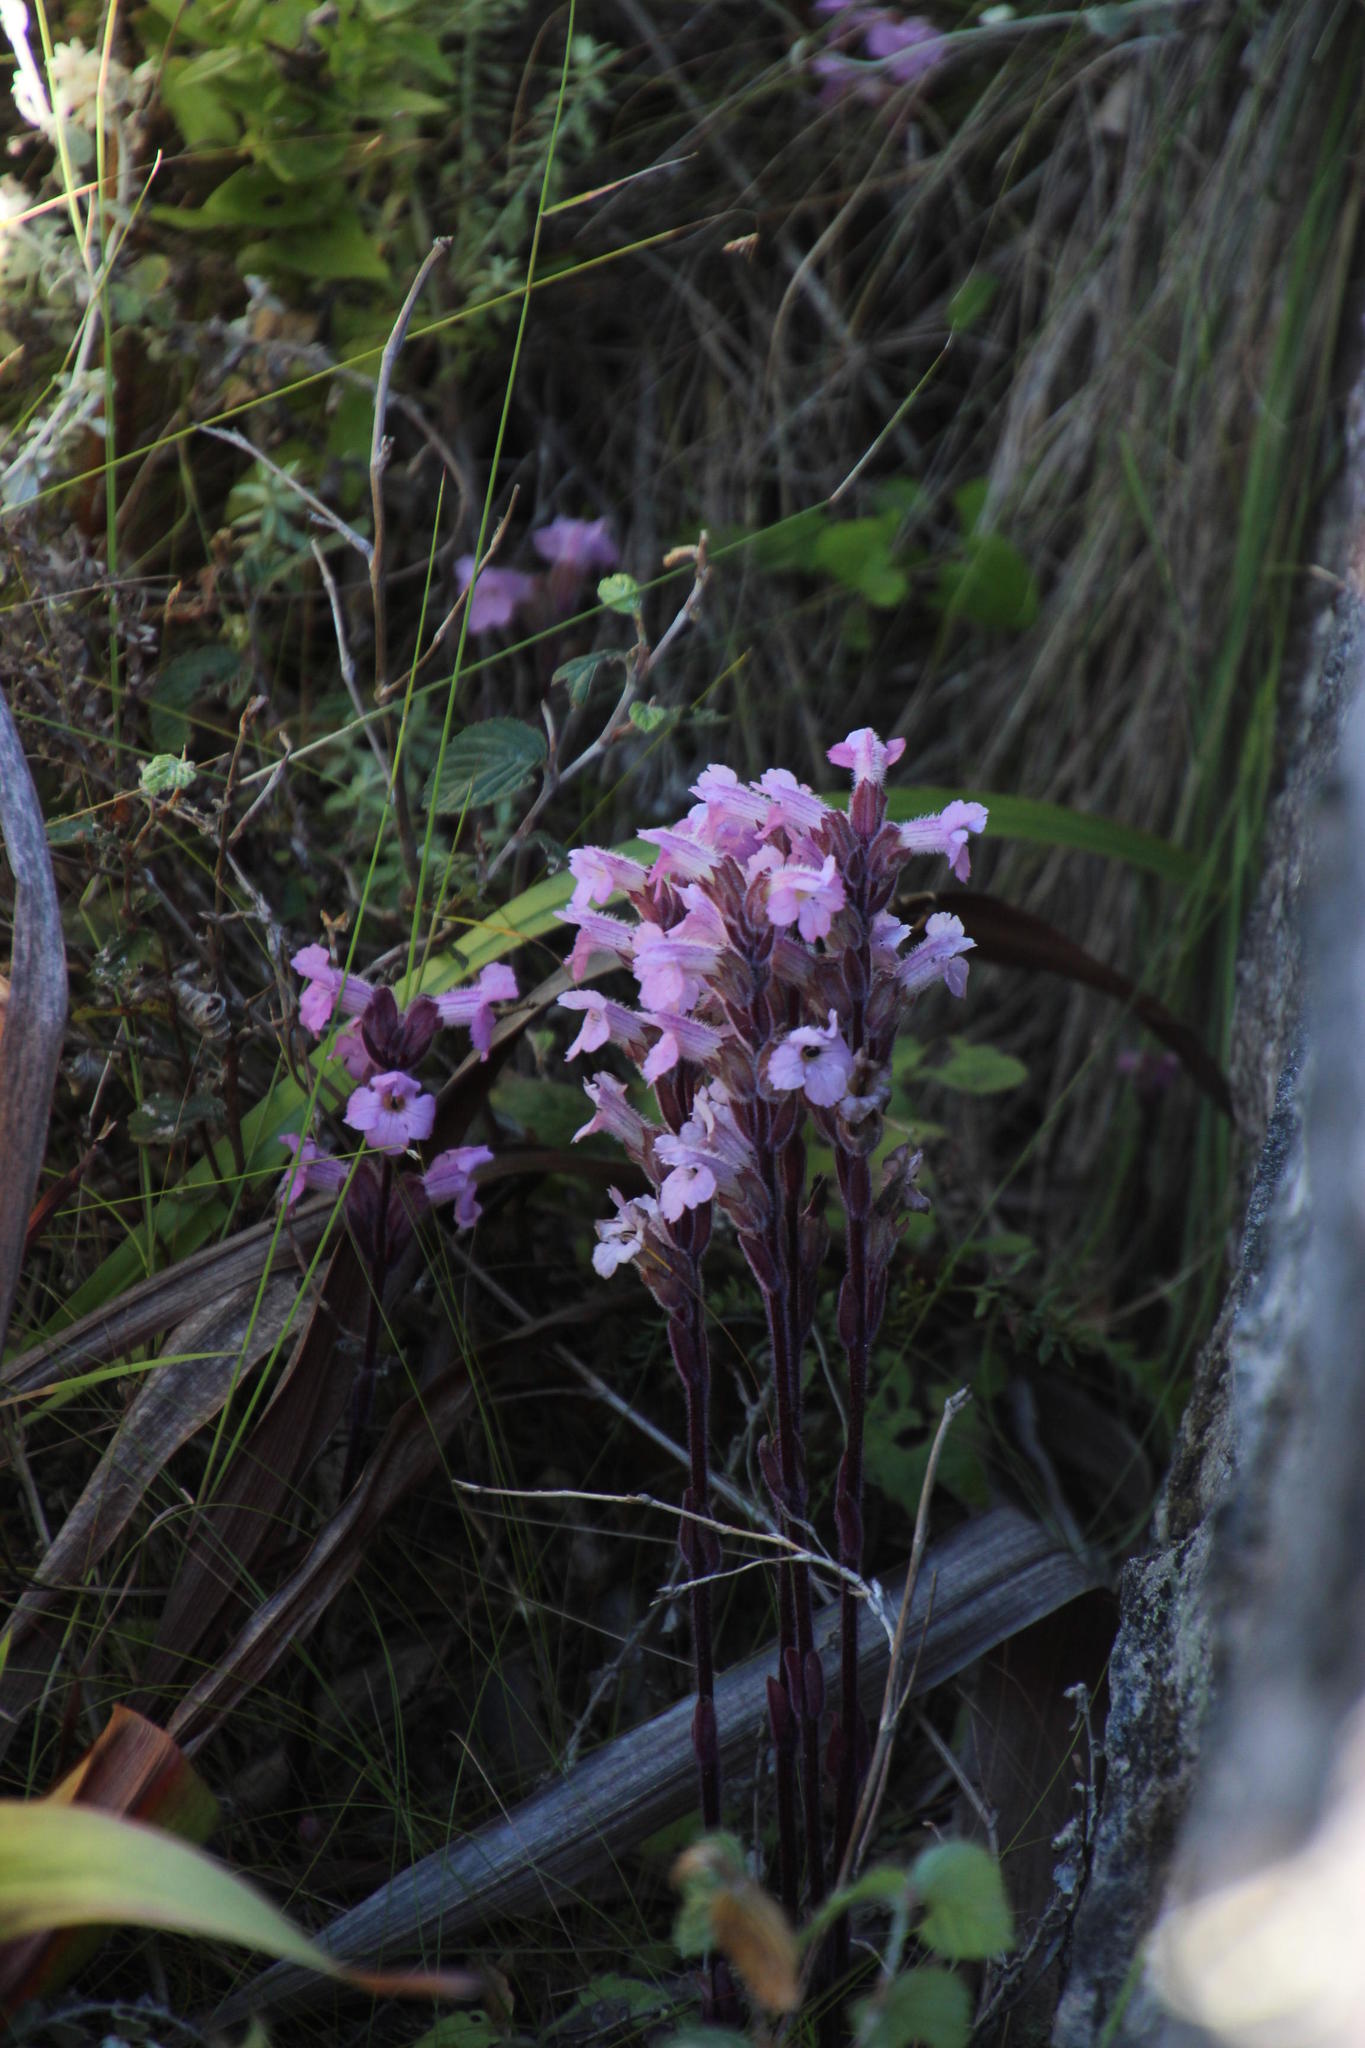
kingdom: Plantae
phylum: Tracheophyta
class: Magnoliopsida
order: Lamiales
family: Orobanchaceae
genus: Harveya
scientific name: Harveya pauciflora
